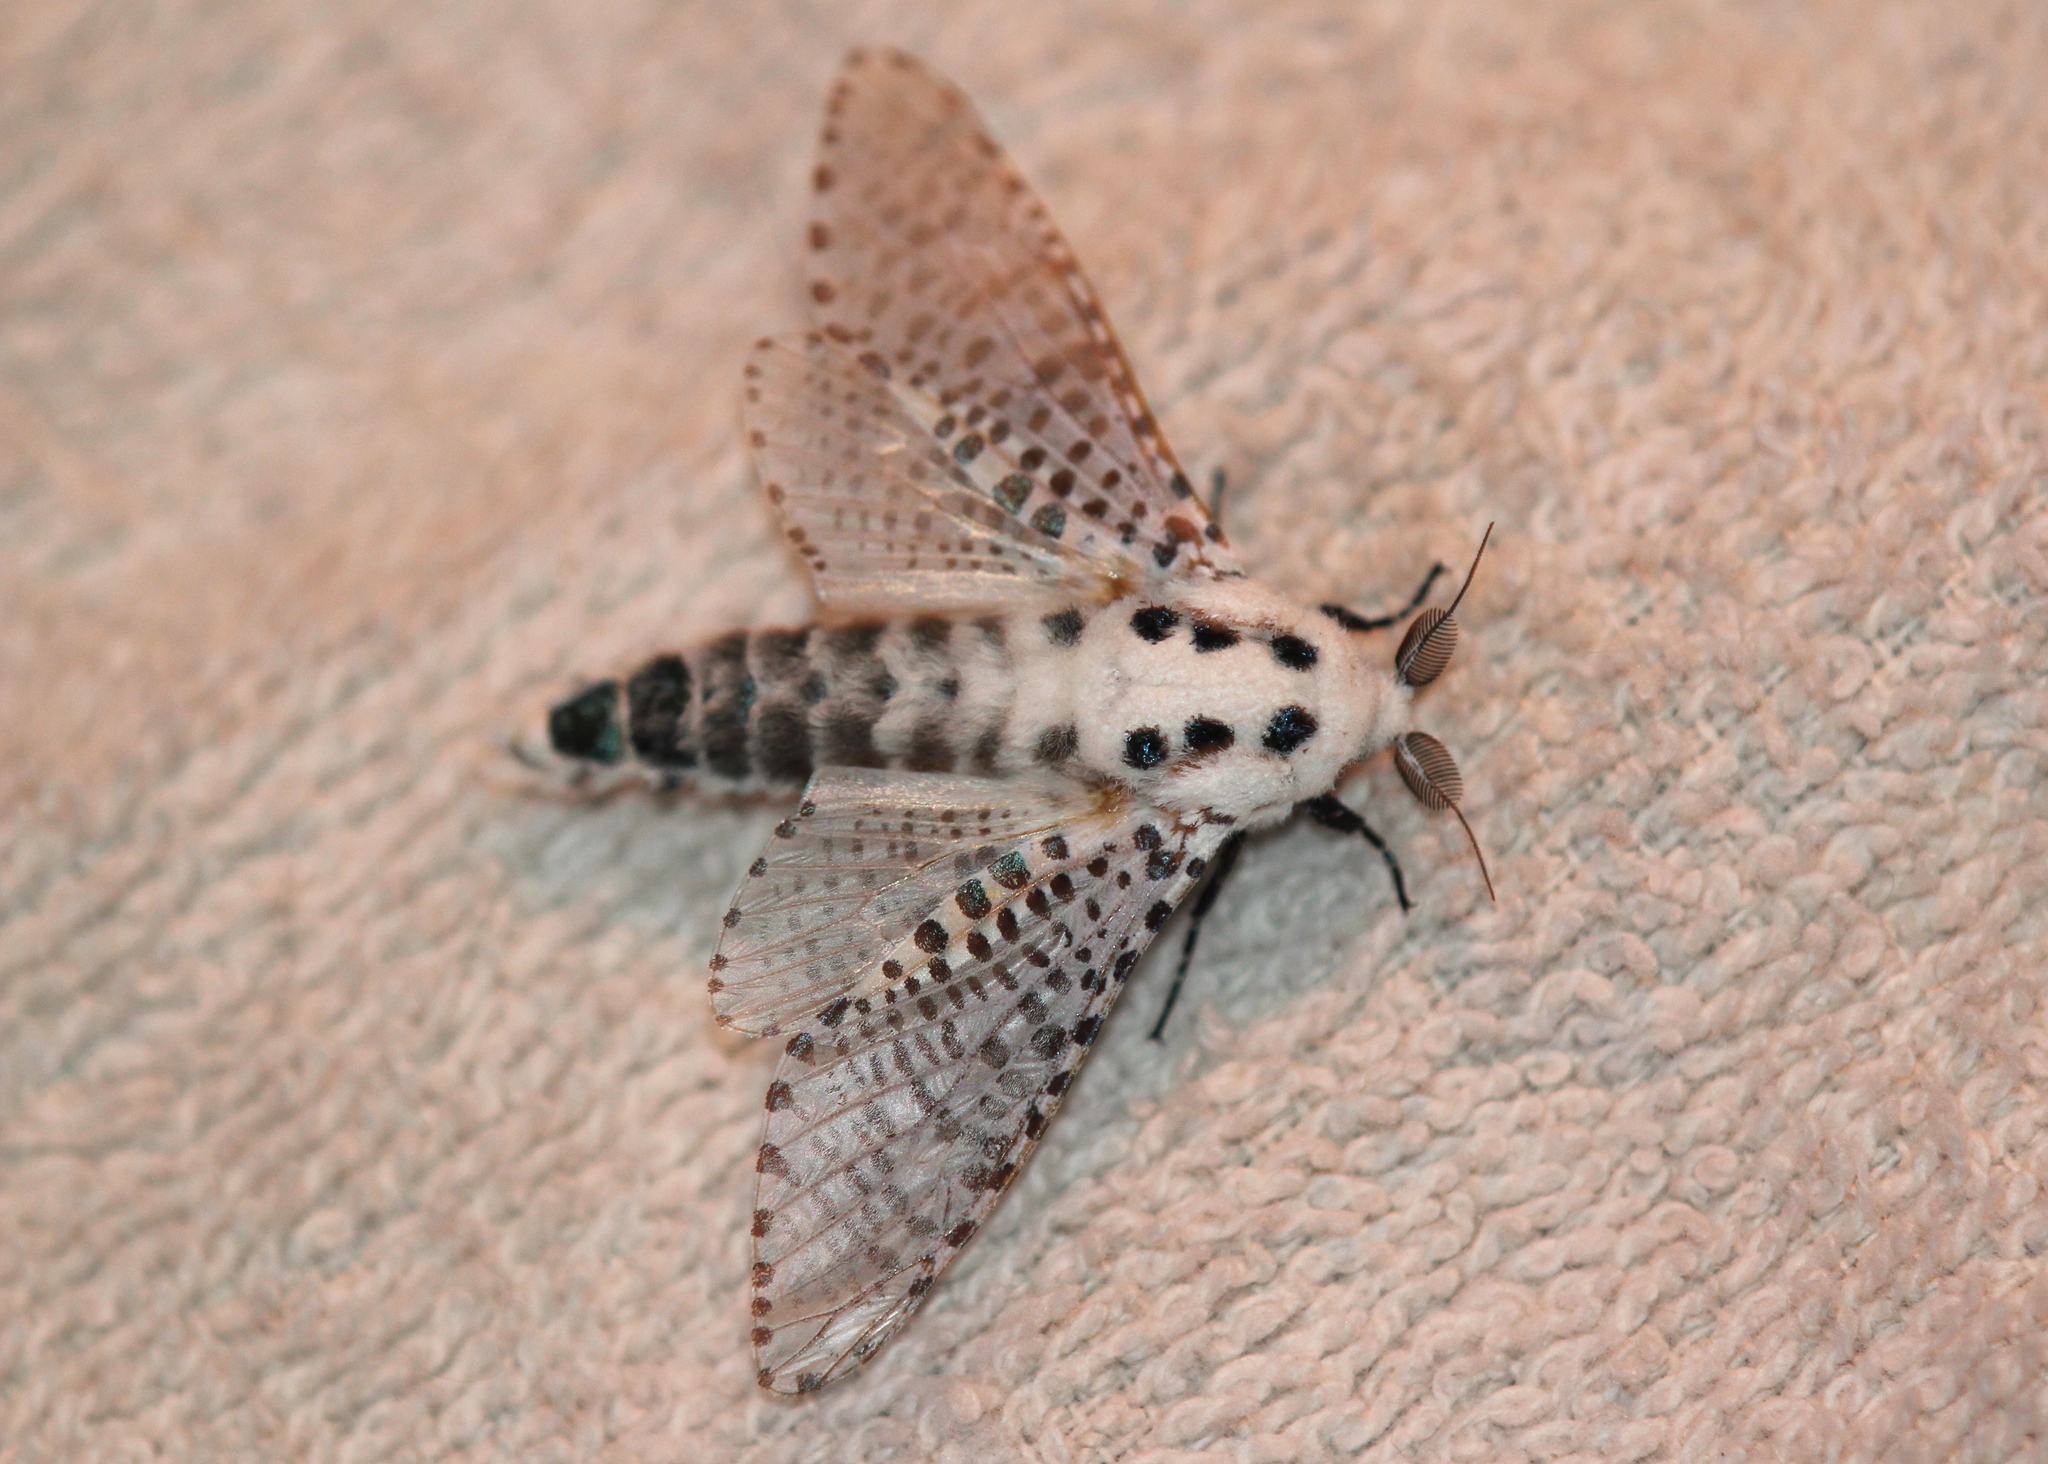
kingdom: Animalia
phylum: Arthropoda
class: Insecta
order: Lepidoptera
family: Cossidae
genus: Zeuzera
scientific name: Zeuzera pyrina
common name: Leopard moth
